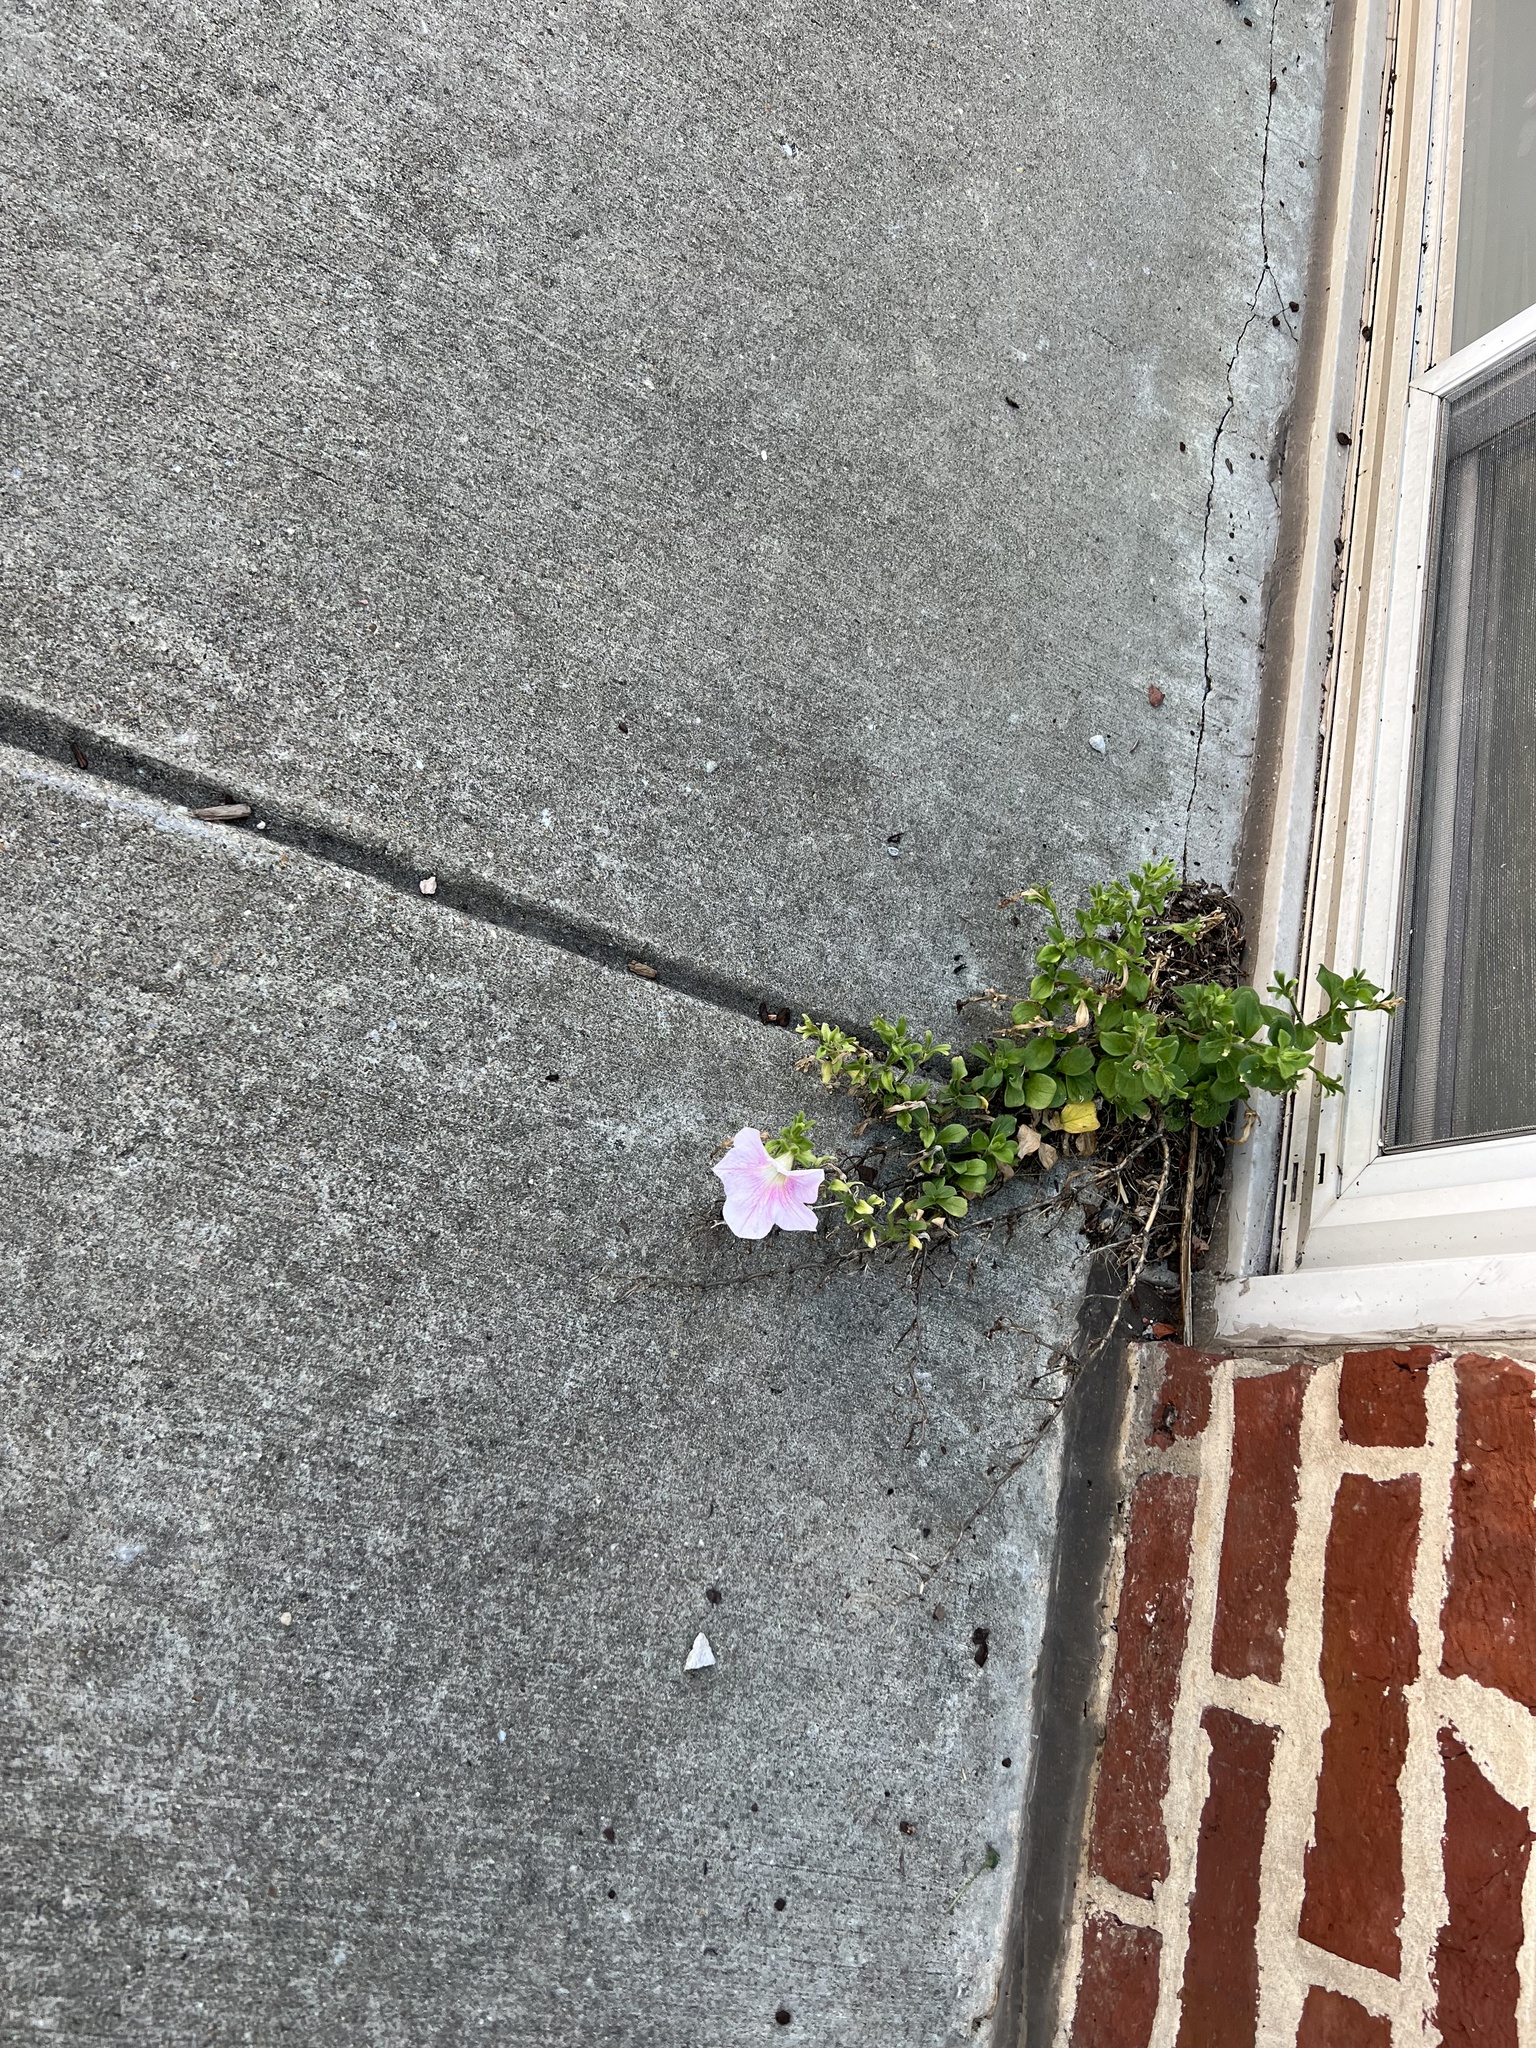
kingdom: Plantae
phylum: Tracheophyta
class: Magnoliopsida
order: Solanales
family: Solanaceae
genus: Petunia
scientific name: Petunia atkinsiana
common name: Petunia
